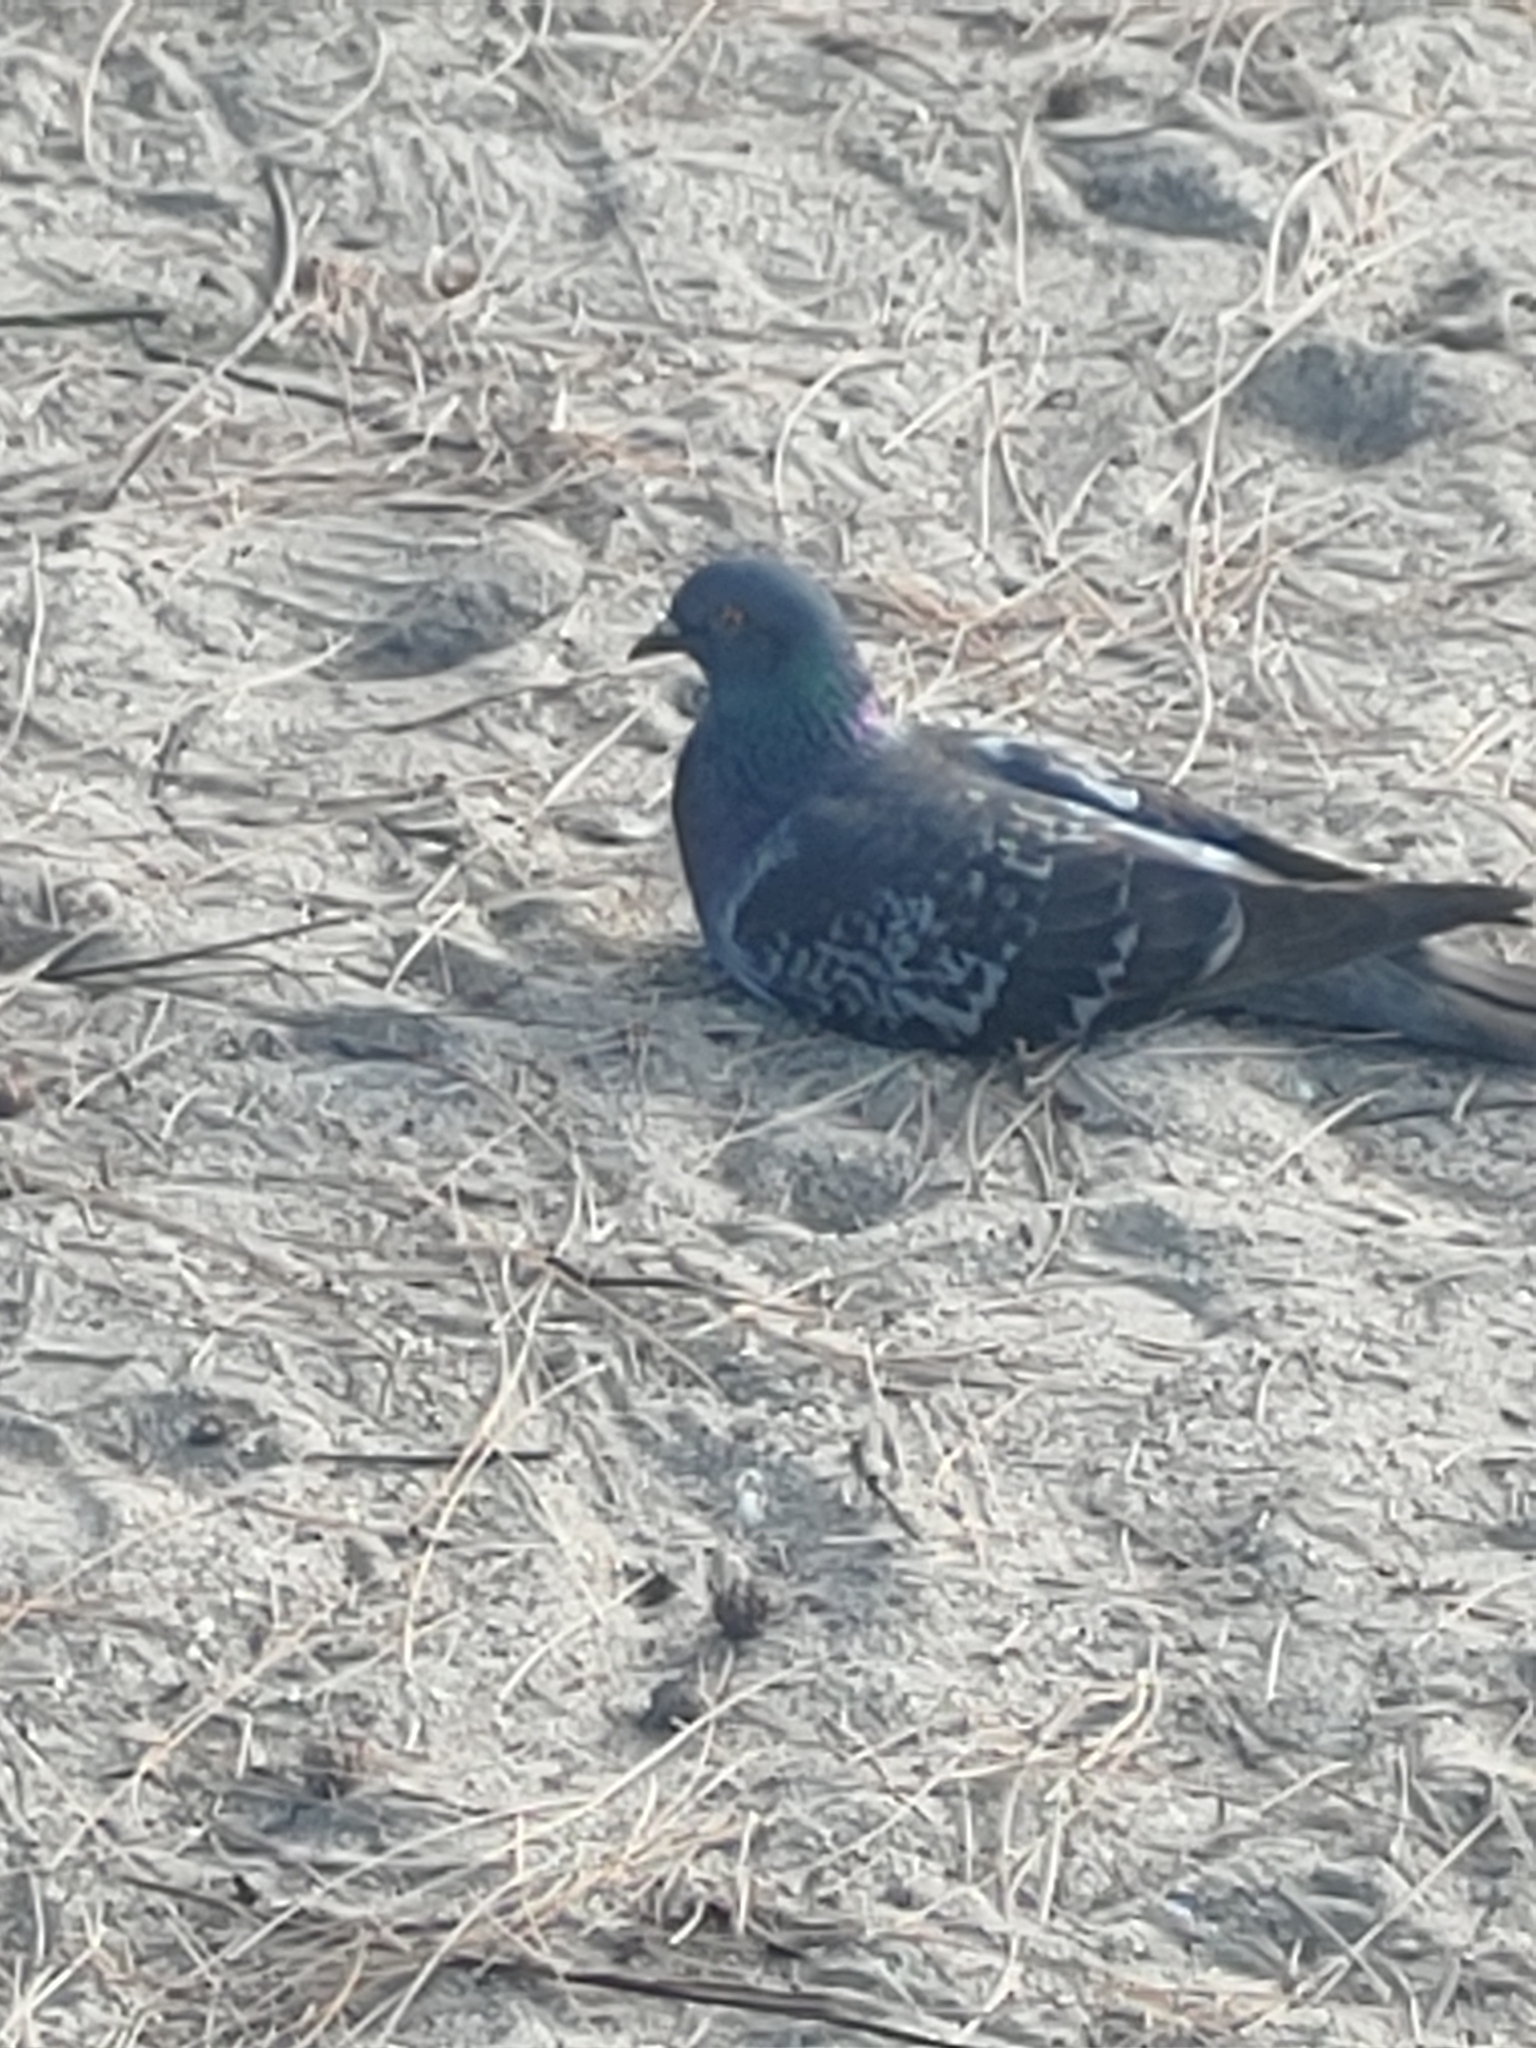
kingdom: Animalia
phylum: Chordata
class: Aves
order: Columbiformes
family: Columbidae
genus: Columba
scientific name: Columba livia
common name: Rock pigeon
